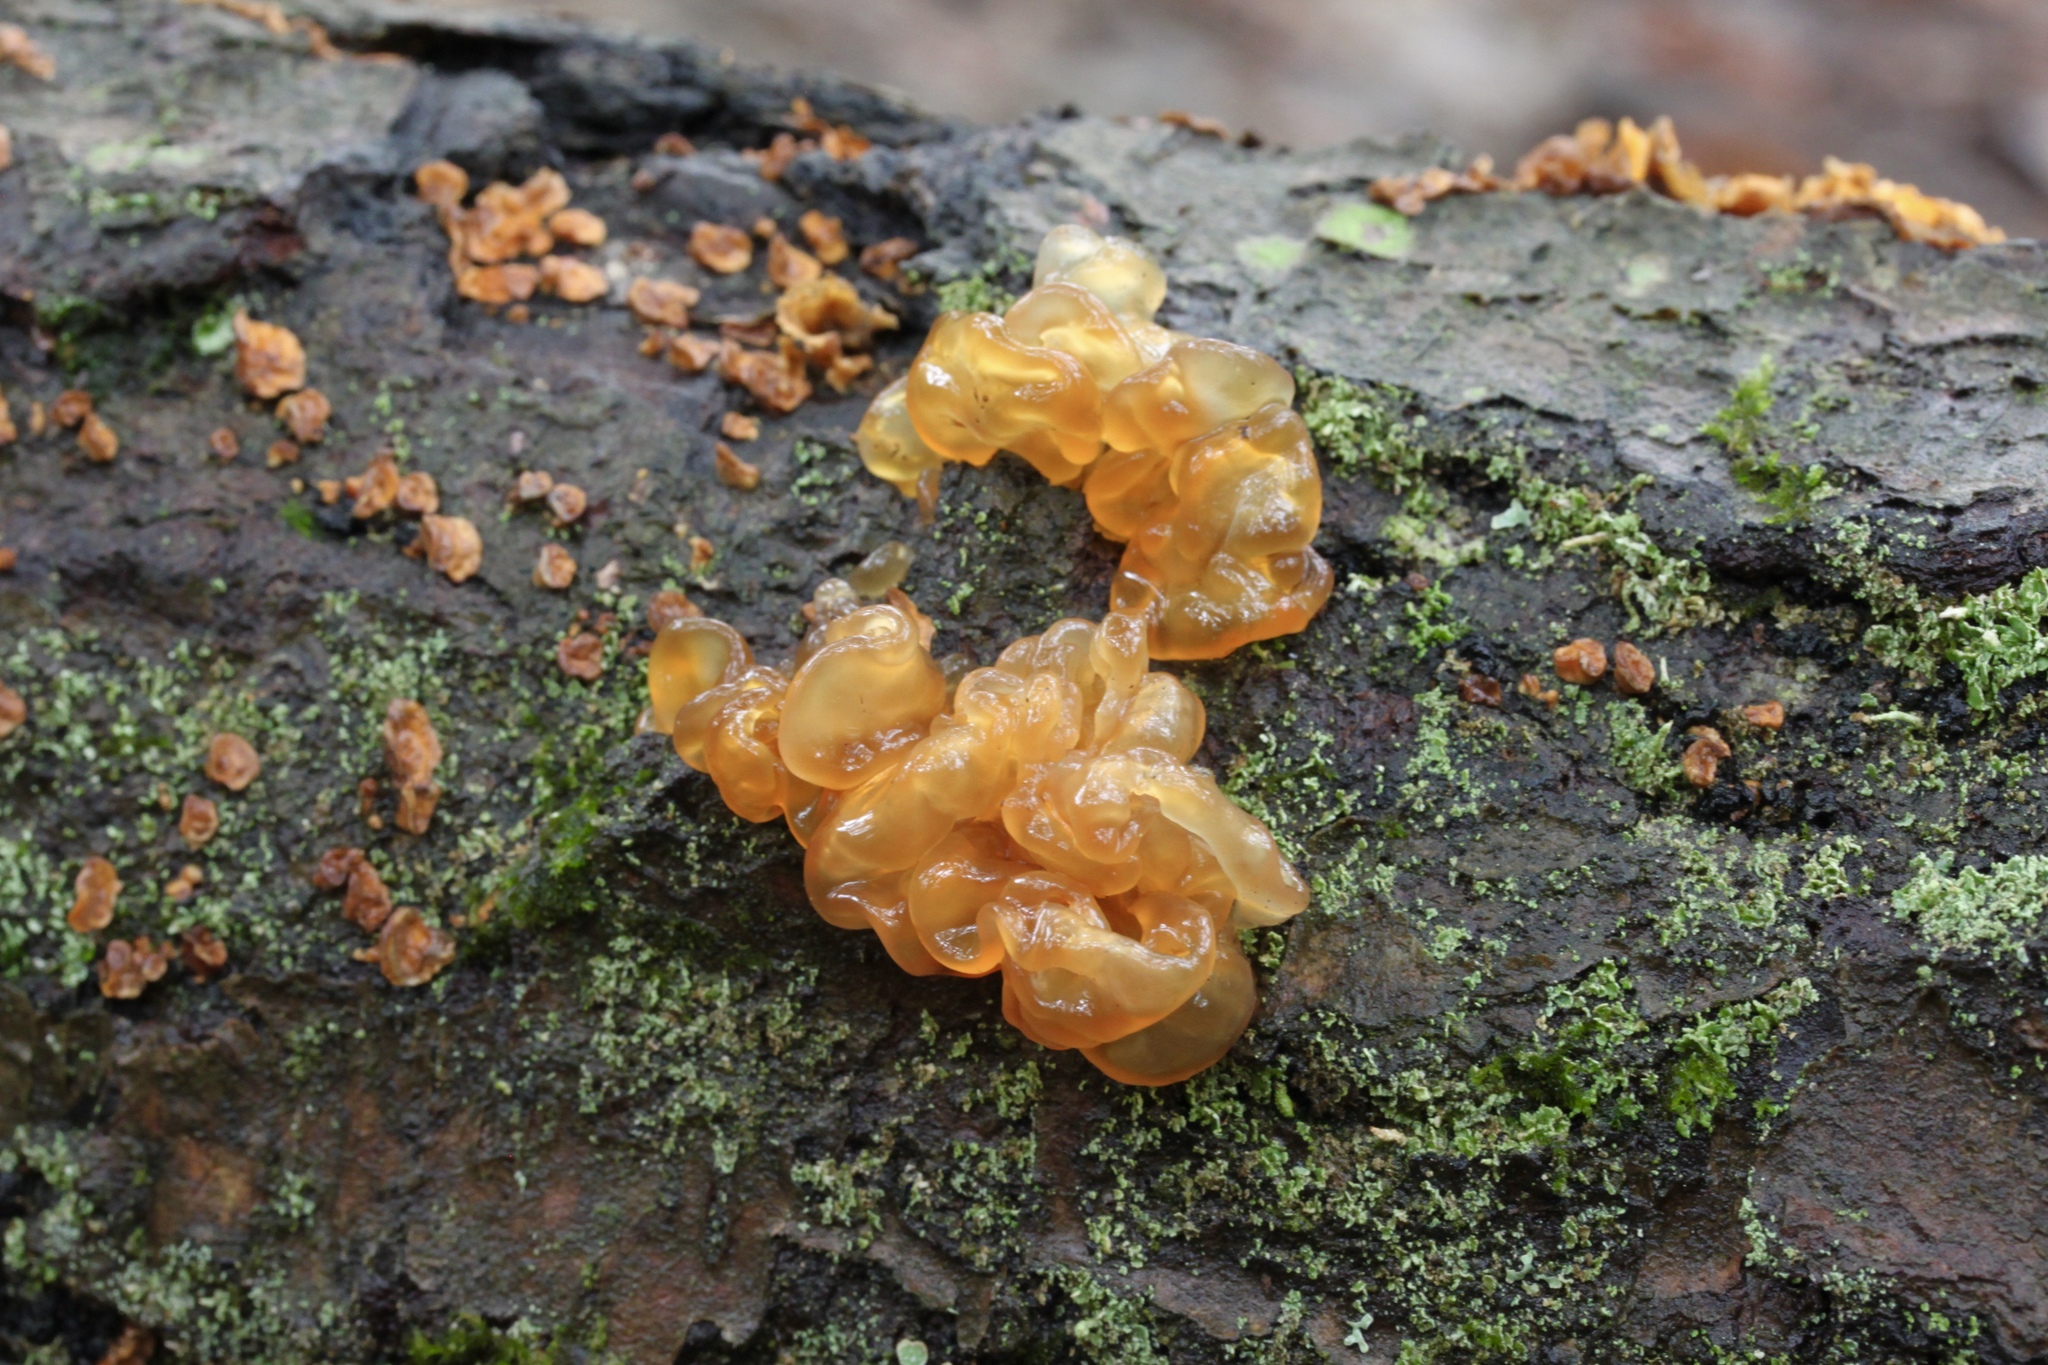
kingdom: Fungi
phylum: Basidiomycota
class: Tremellomycetes
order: Tremellales
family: Tremellaceae
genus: Tremella
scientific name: Tremella mesenterica
